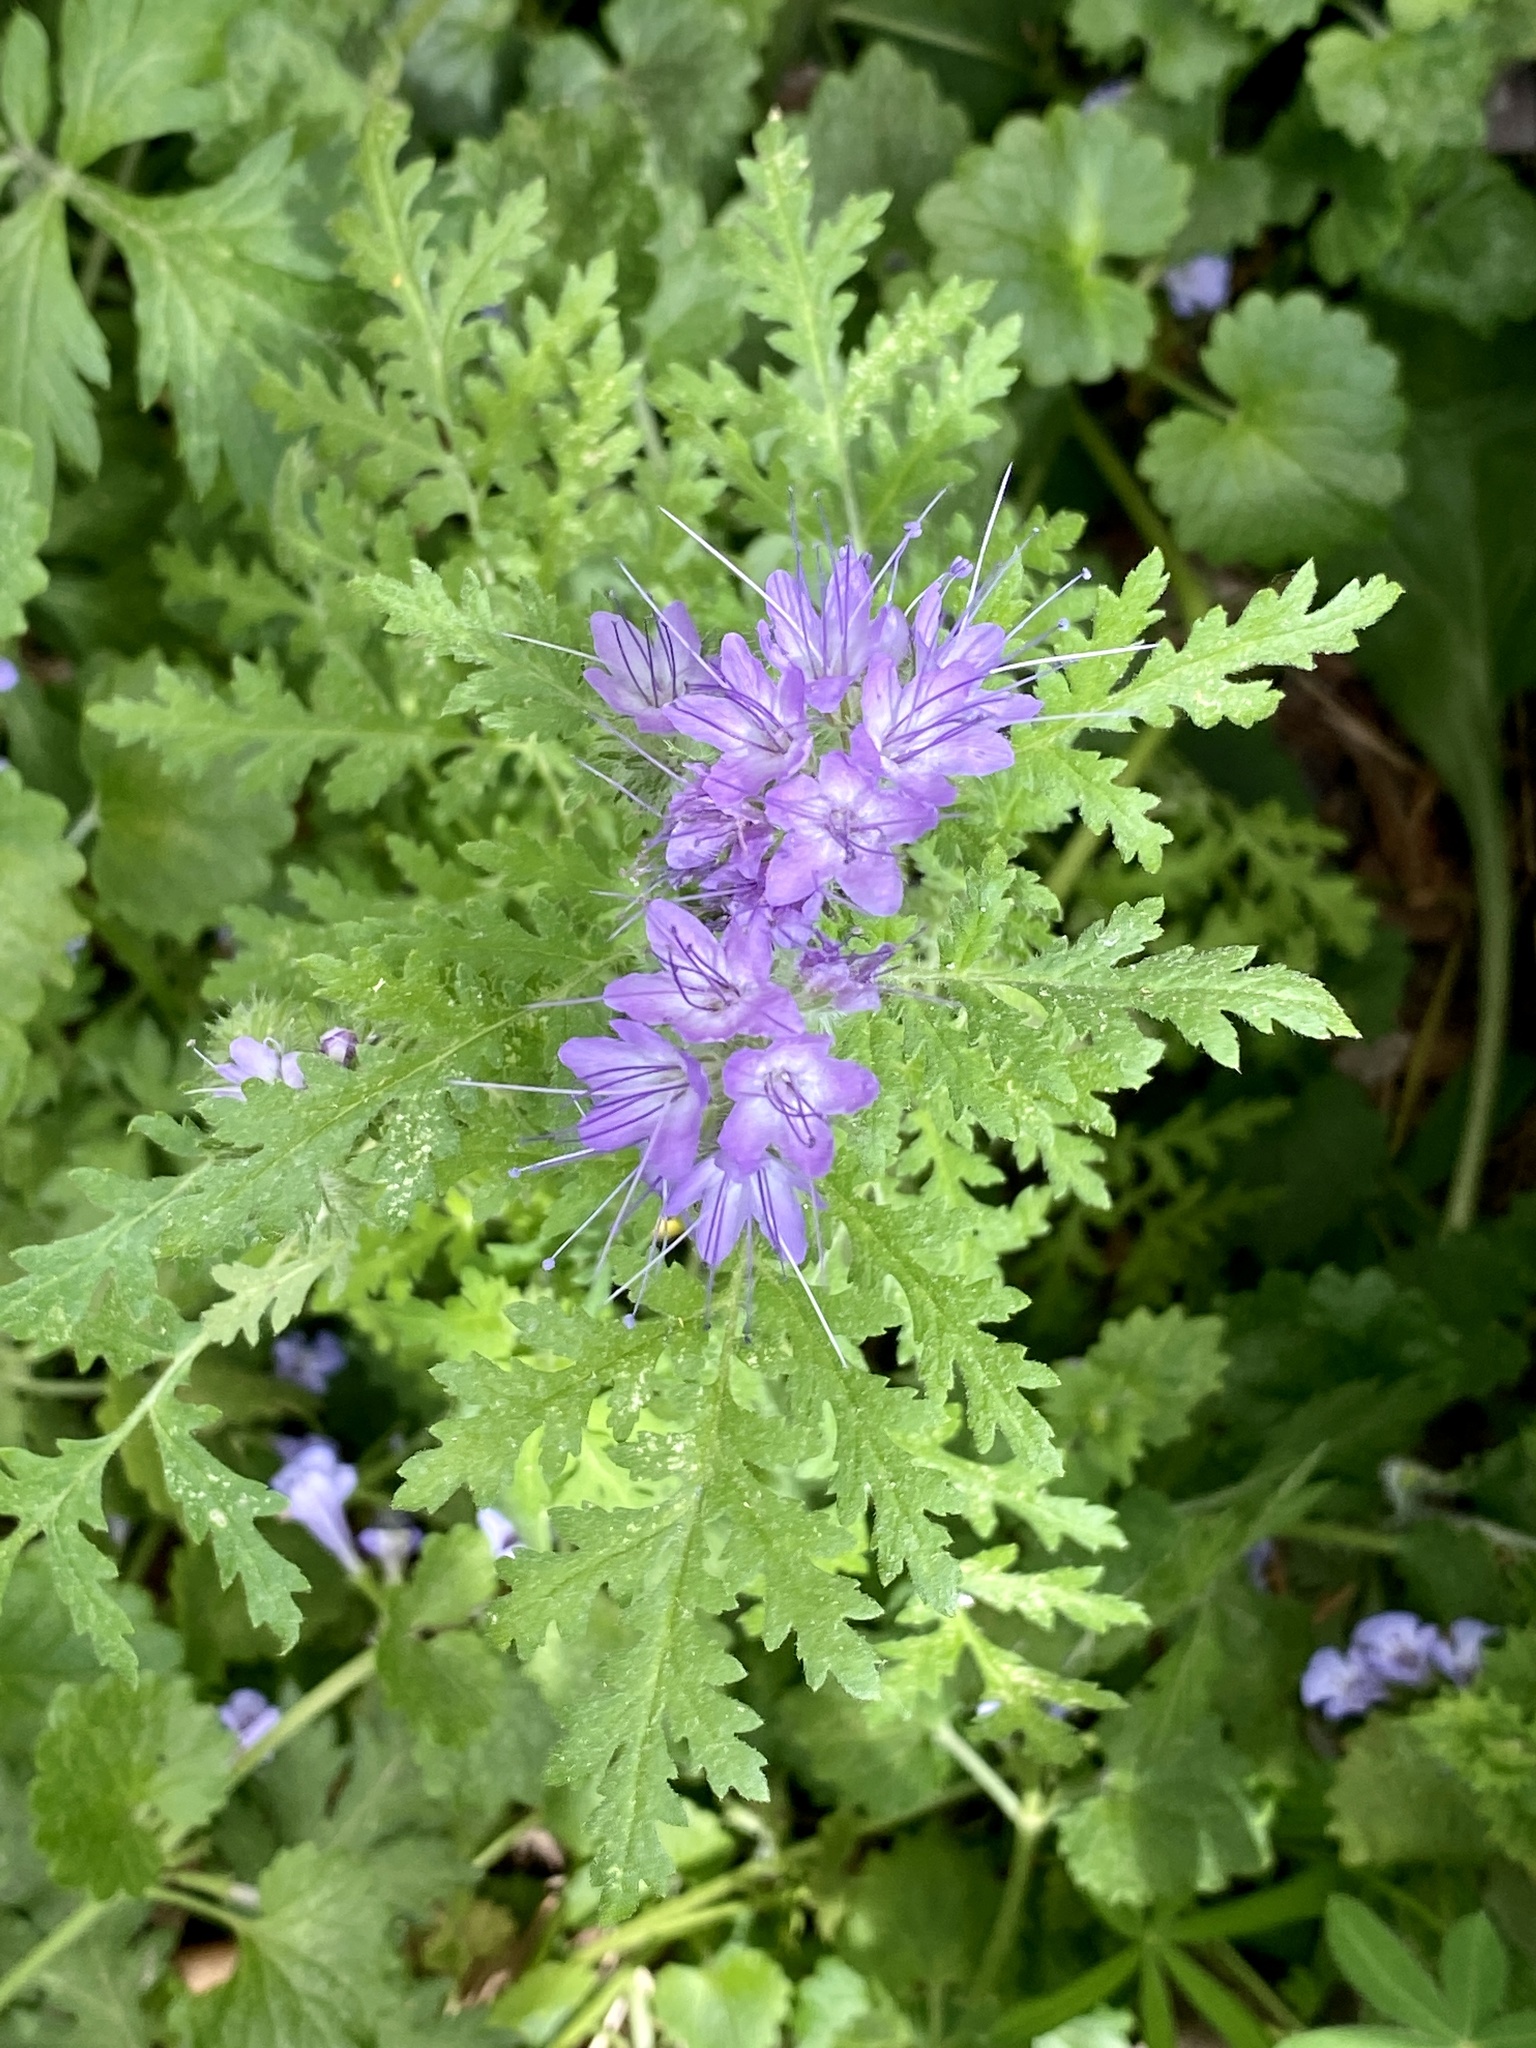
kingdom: Plantae
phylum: Tracheophyta
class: Magnoliopsida
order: Boraginales
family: Hydrophyllaceae
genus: Phacelia
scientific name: Phacelia tanacetifolia
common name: Phacelia
